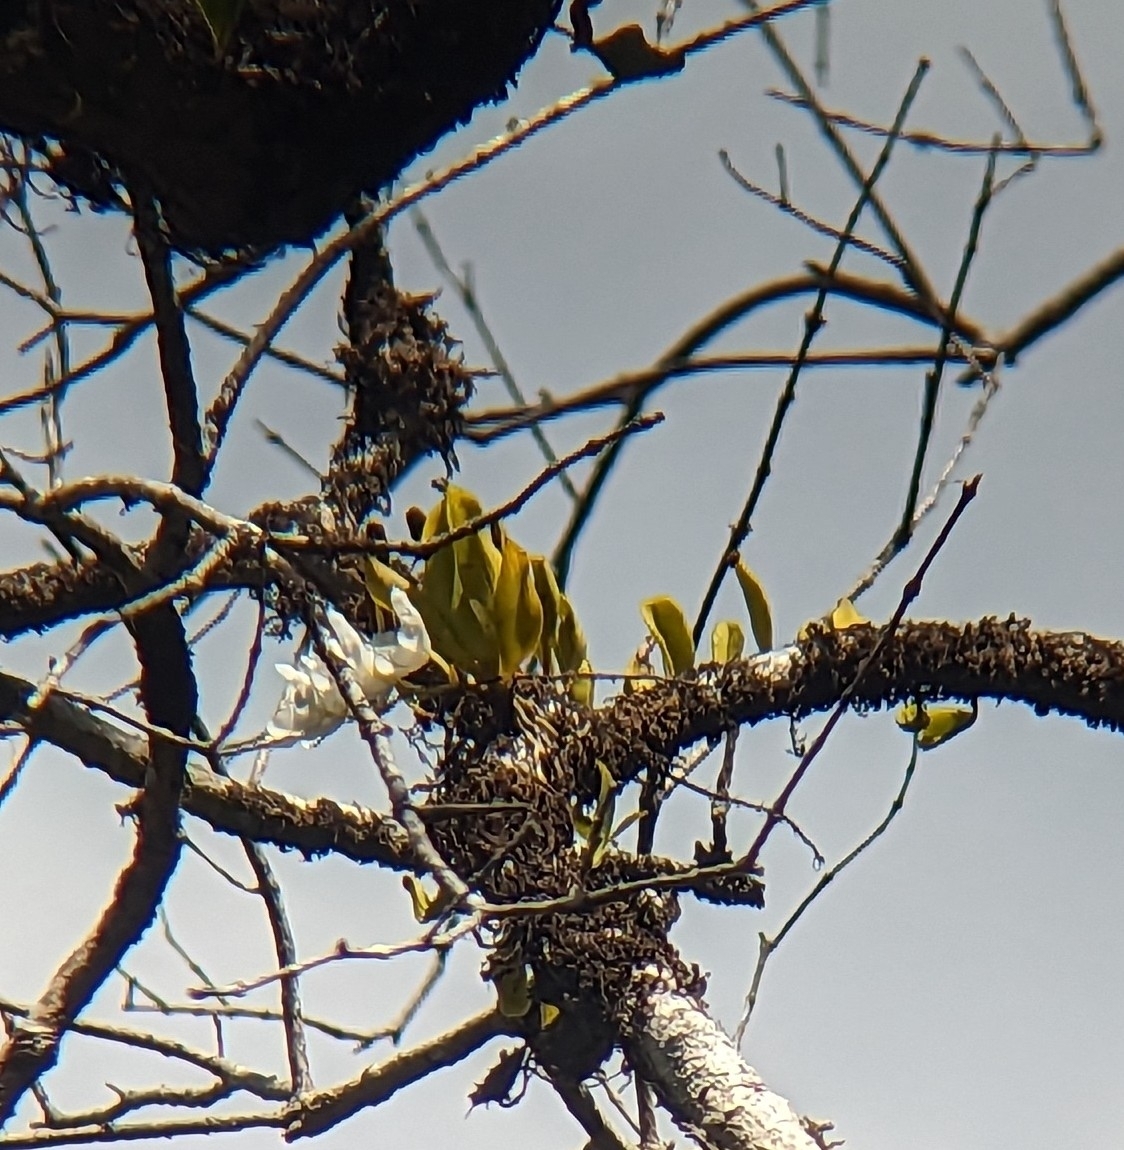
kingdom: Plantae
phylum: Tracheophyta
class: Liliopsida
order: Asparagales
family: Orchidaceae
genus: Sarcochilus
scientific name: Sarcochilus falcatus
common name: Orange blossom orchid
